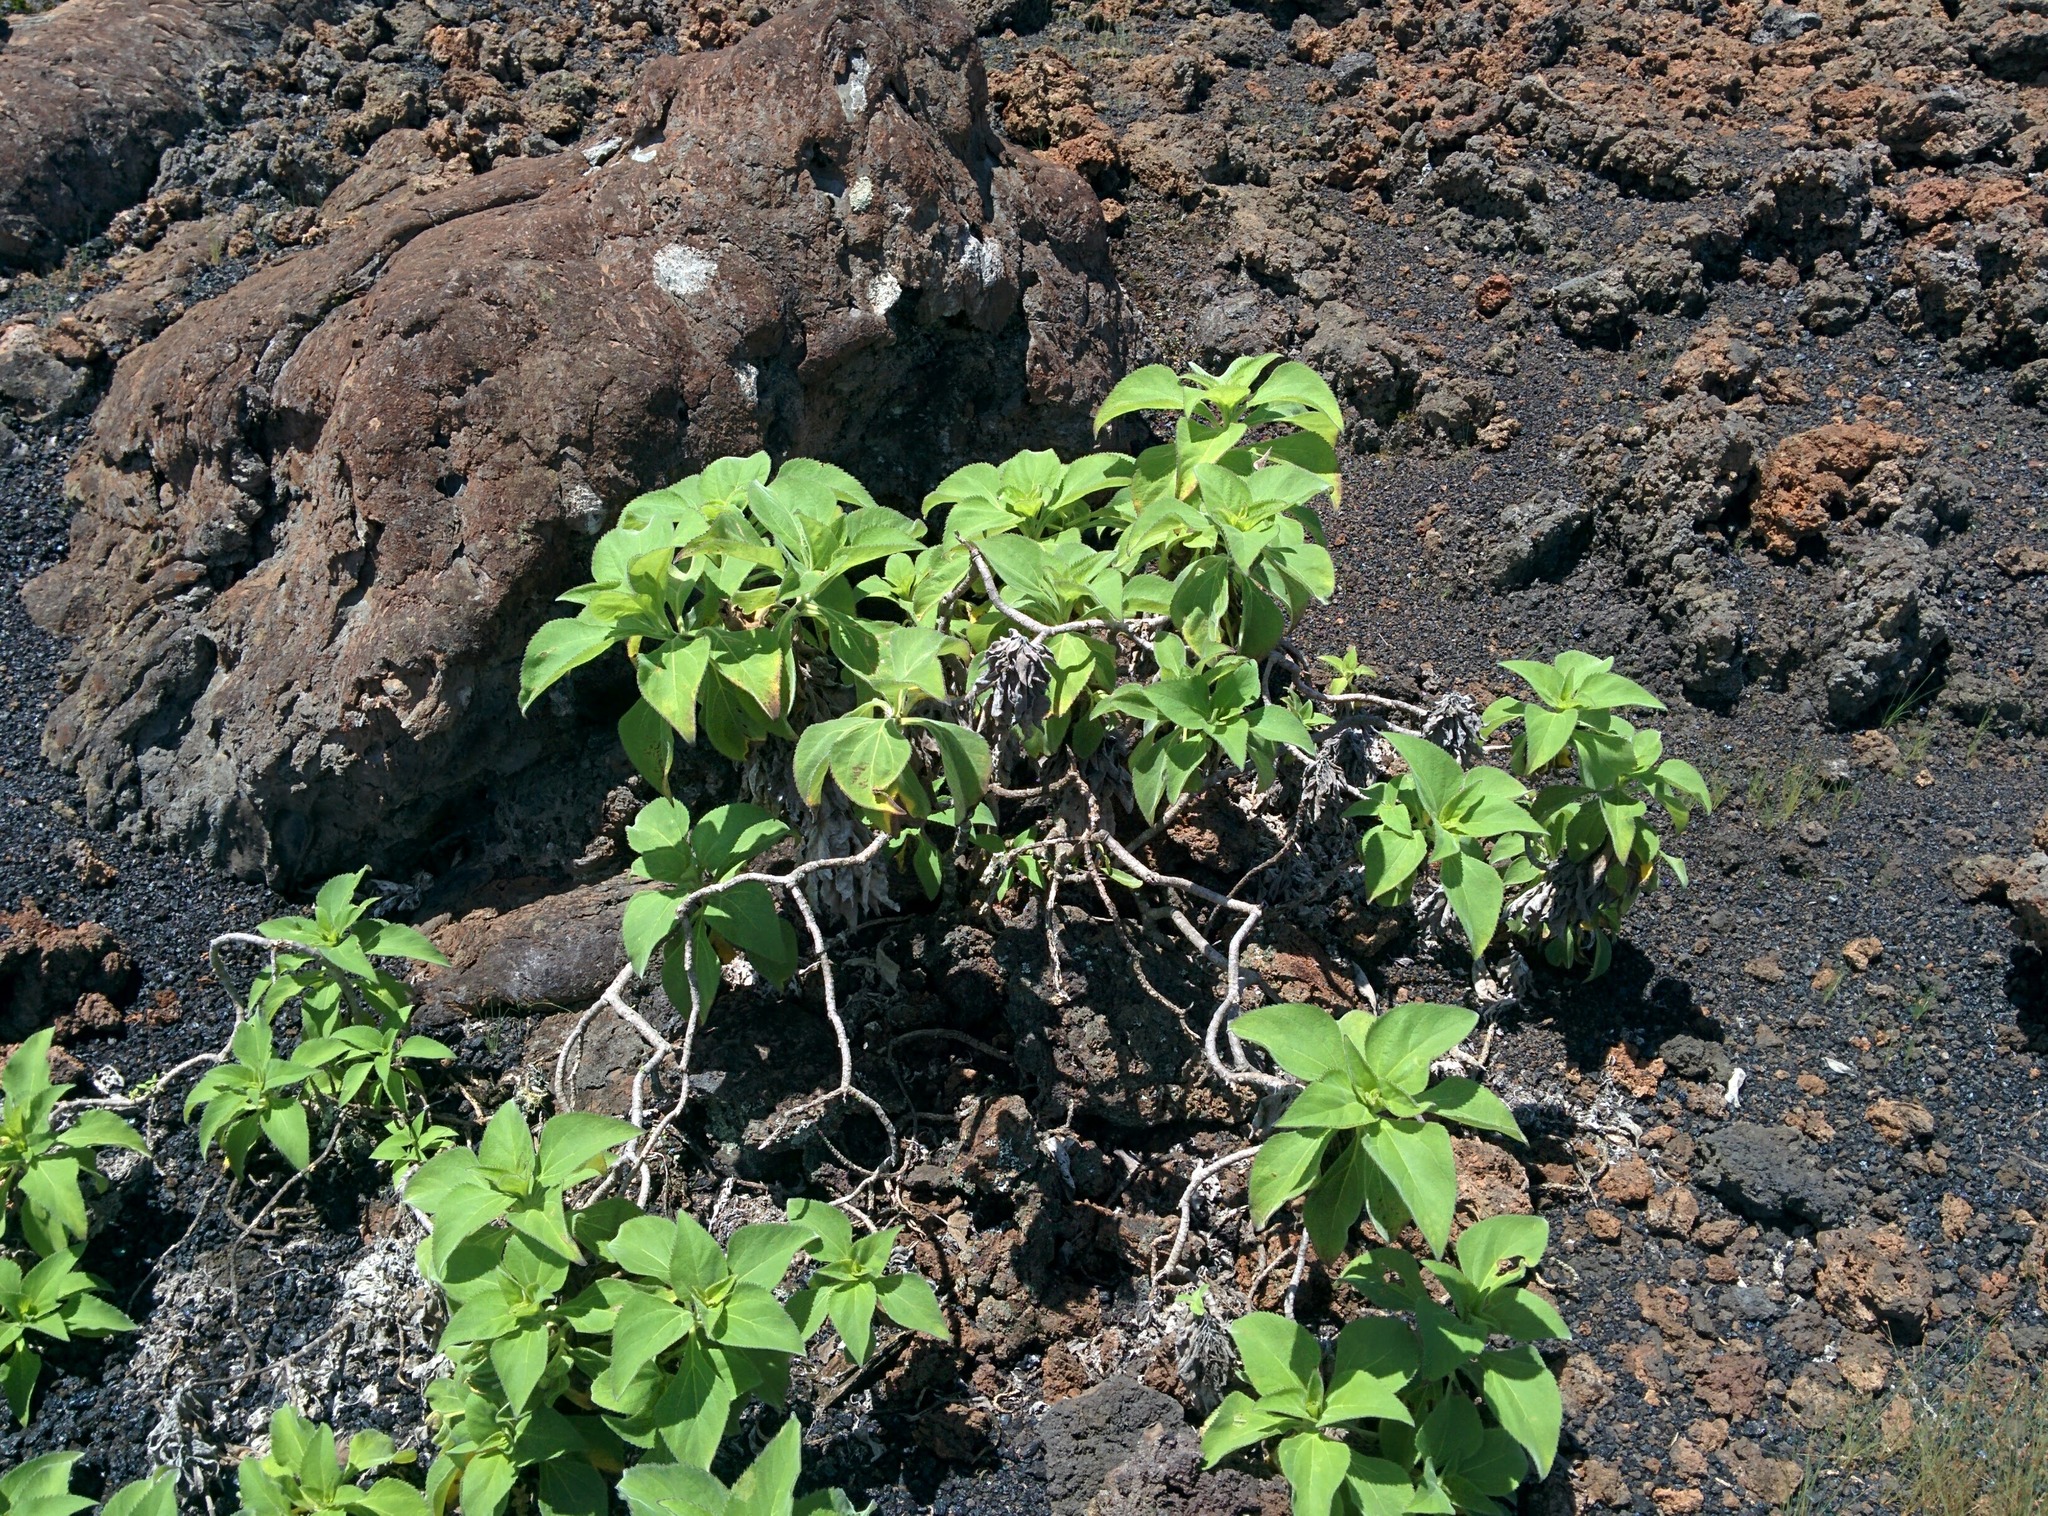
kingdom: Plantae
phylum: Tracheophyta
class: Magnoliopsida
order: Asterales
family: Asteraceae
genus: Scalesia
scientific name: Scalesia affinis
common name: Radiate-headed scalesia
